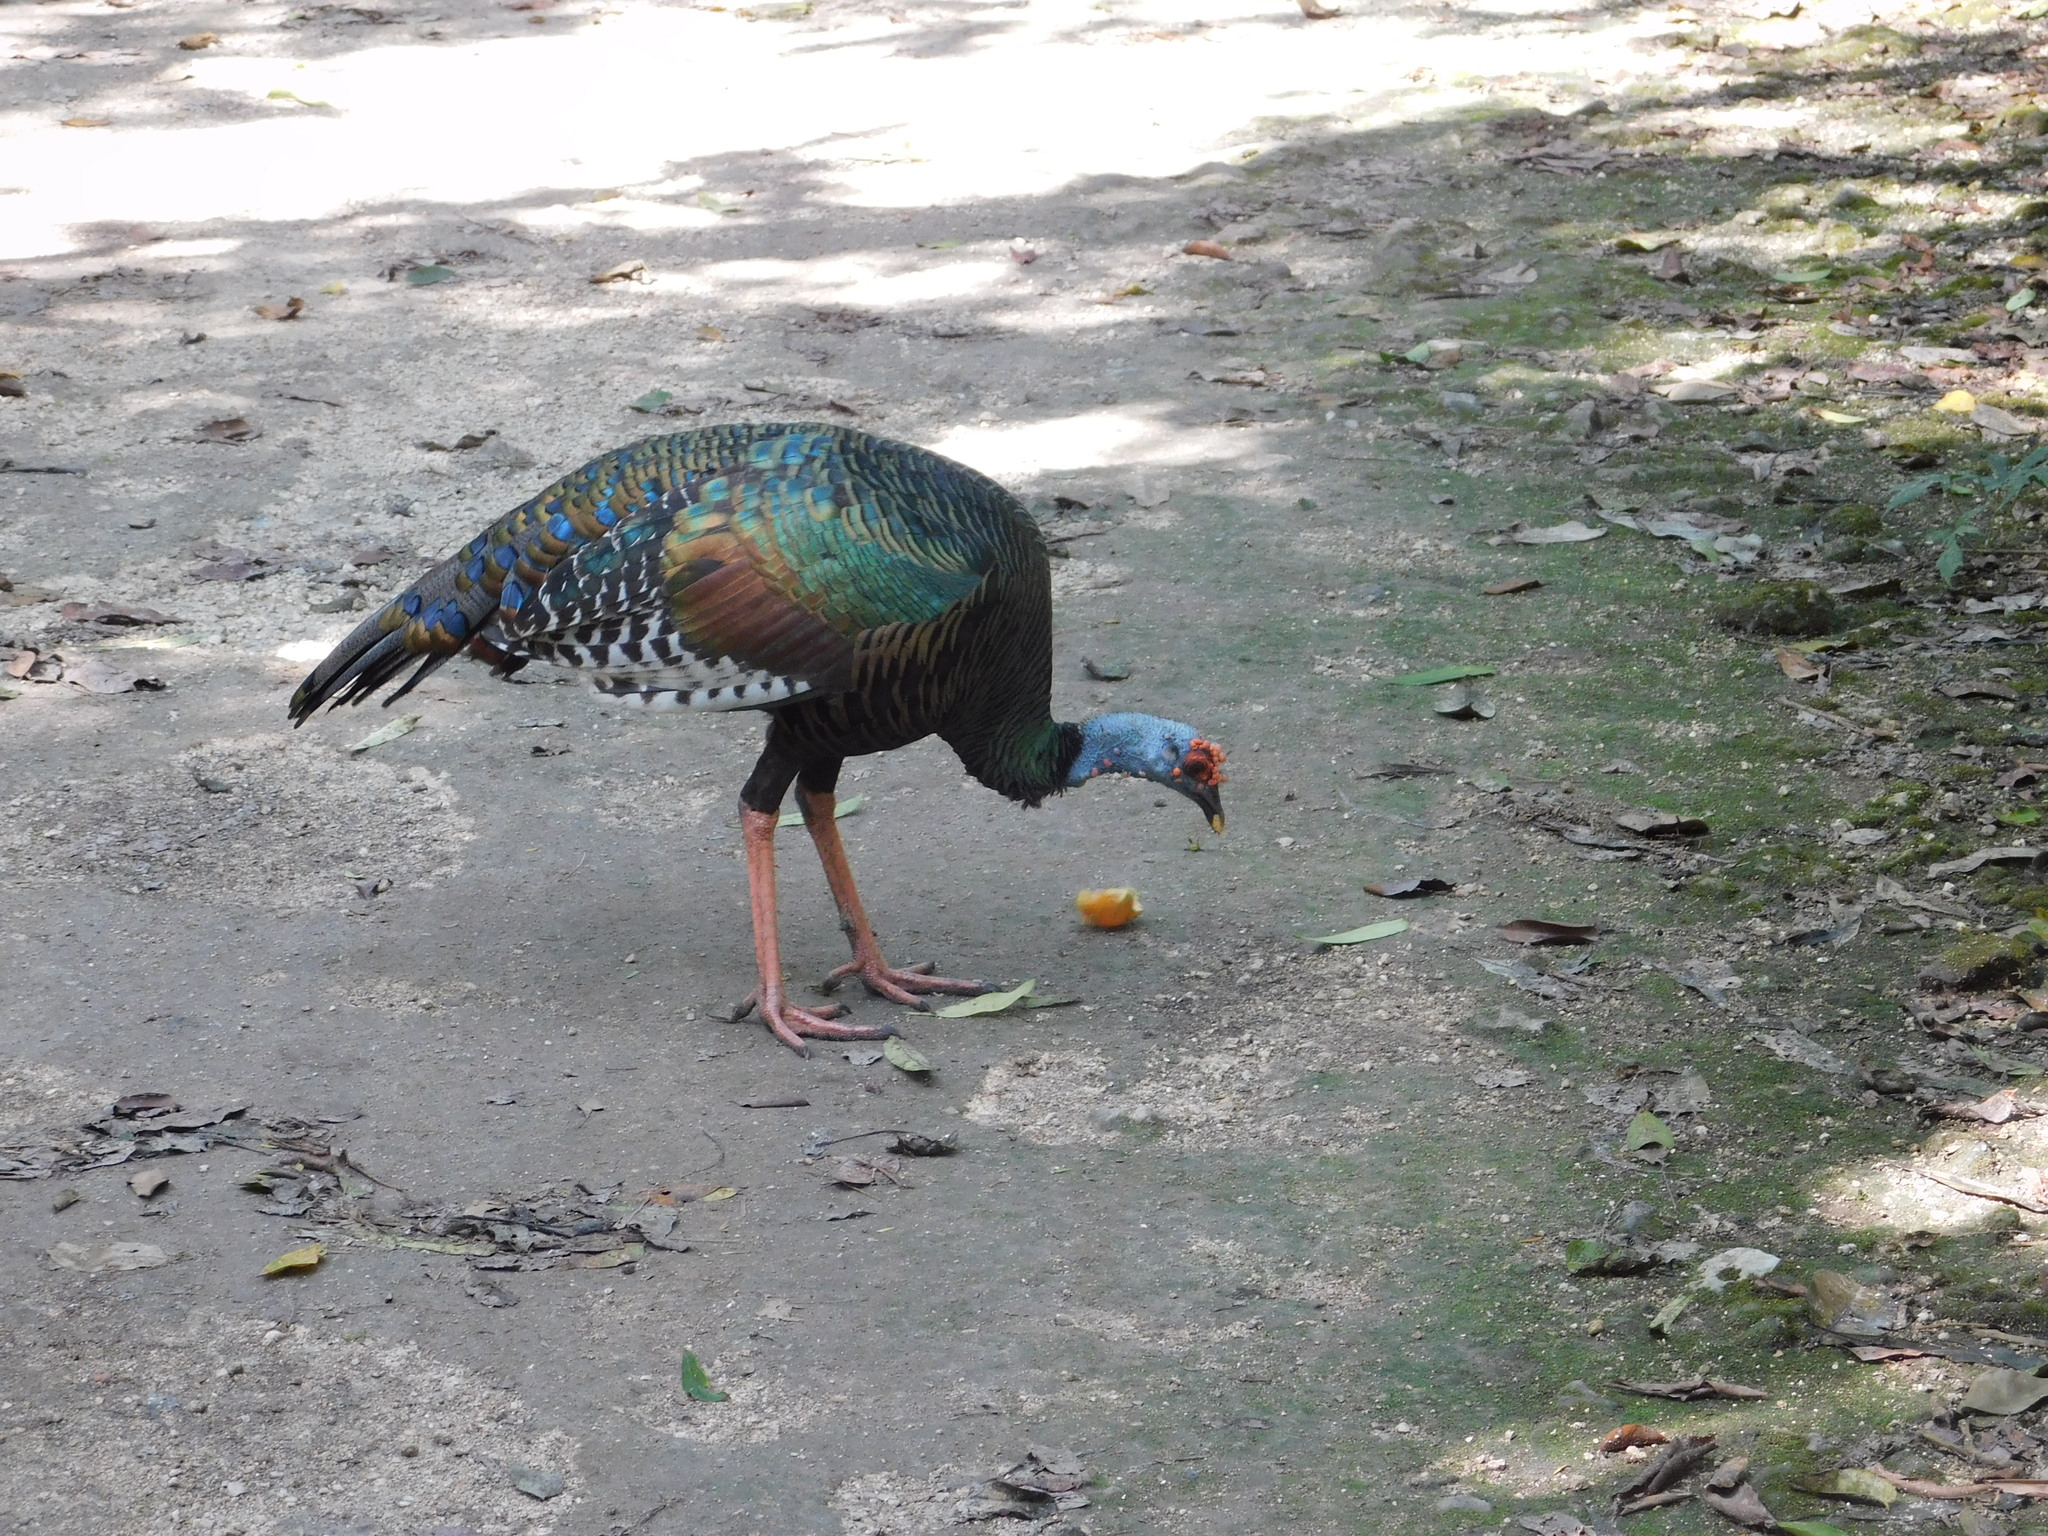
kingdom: Animalia
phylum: Chordata
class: Aves
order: Galliformes
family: Phasianidae
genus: Meleagris
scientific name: Meleagris ocellata
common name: Ocellated turkey
